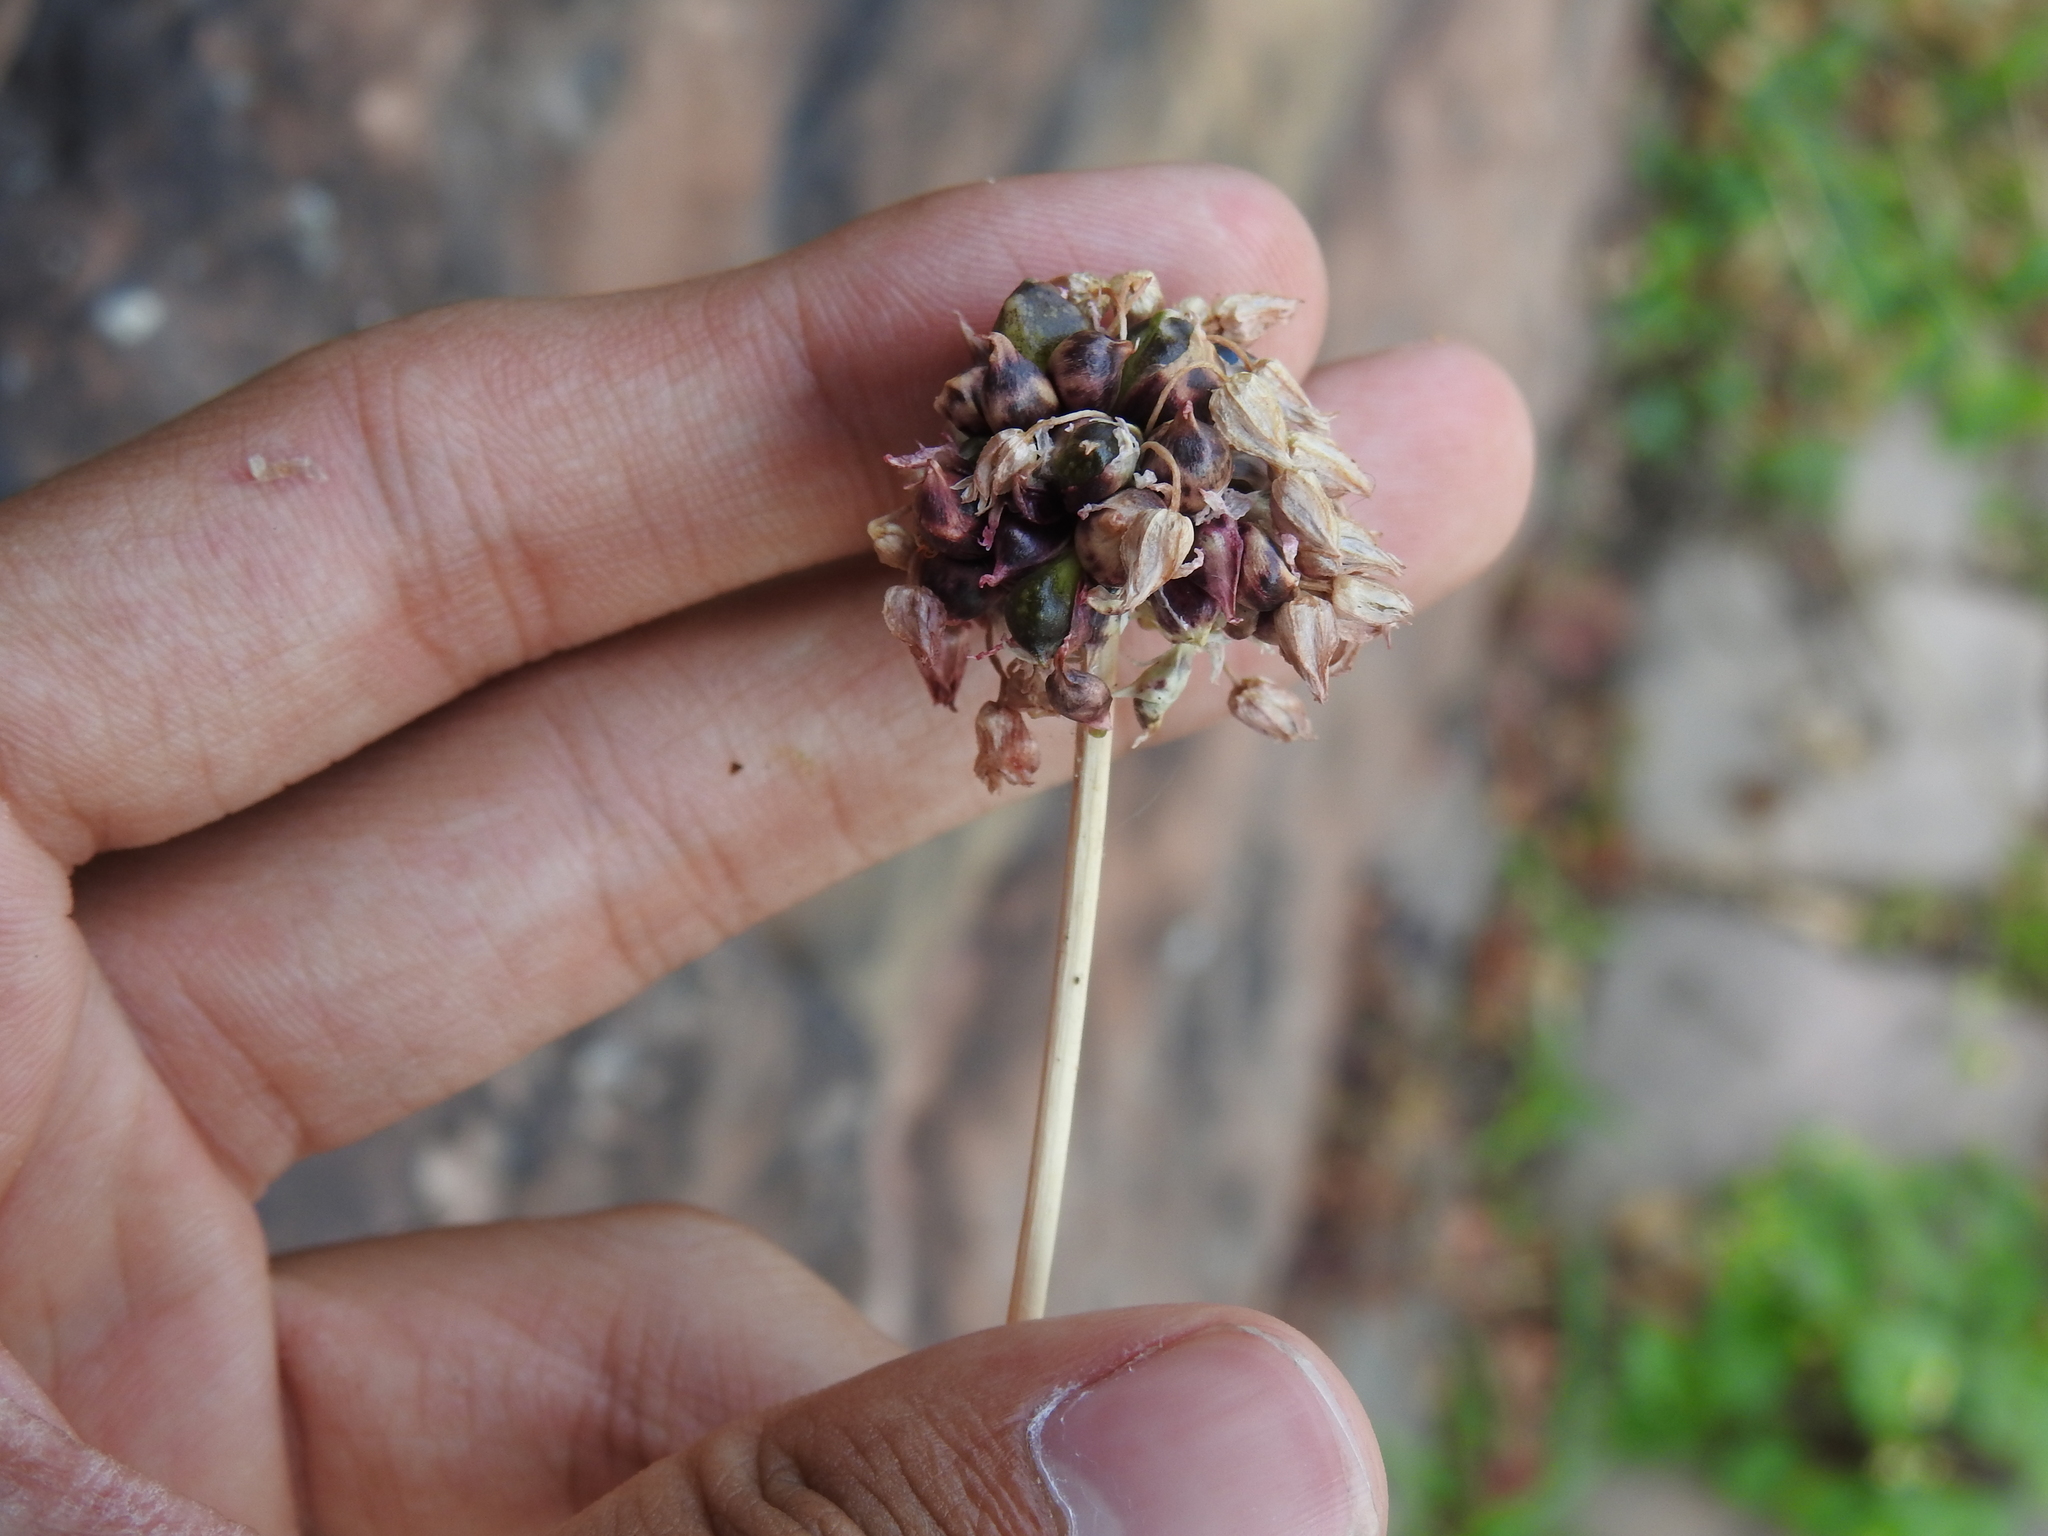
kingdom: Plantae
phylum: Tracheophyta
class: Liliopsida
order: Asparagales
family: Amaryllidaceae
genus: Allium
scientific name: Allium scorodoprasum
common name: Sand leek
